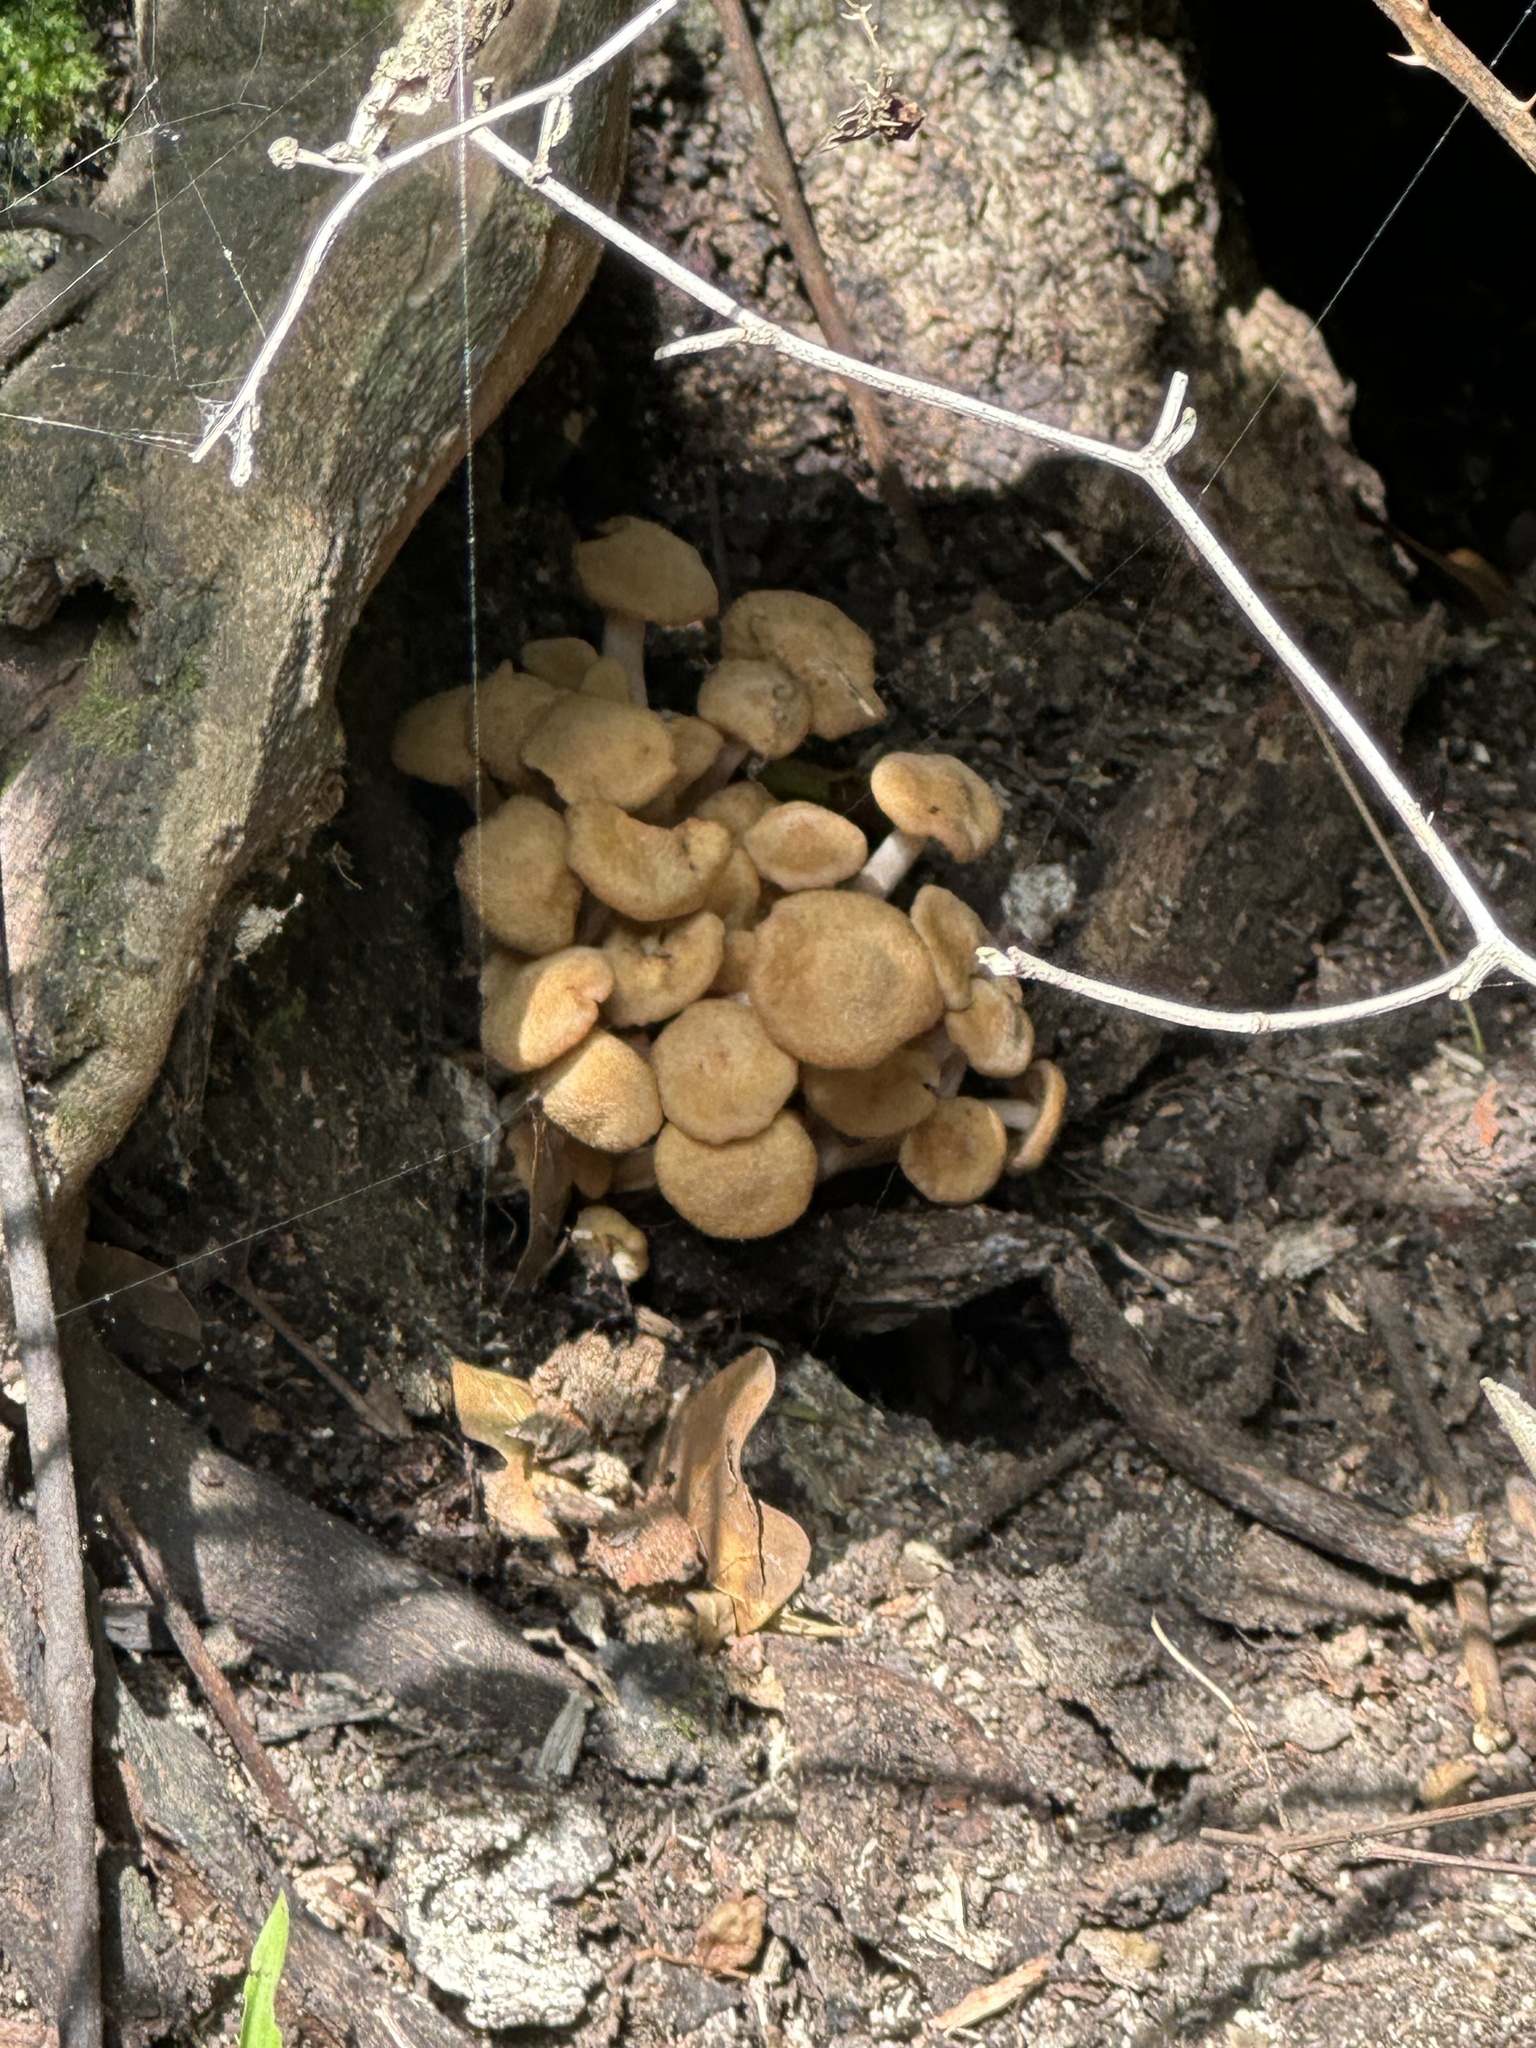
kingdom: Fungi
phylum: Basidiomycota
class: Agaricomycetes
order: Agaricales
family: Physalacriaceae
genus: Desarmillaria
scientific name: Desarmillaria caespitosa
